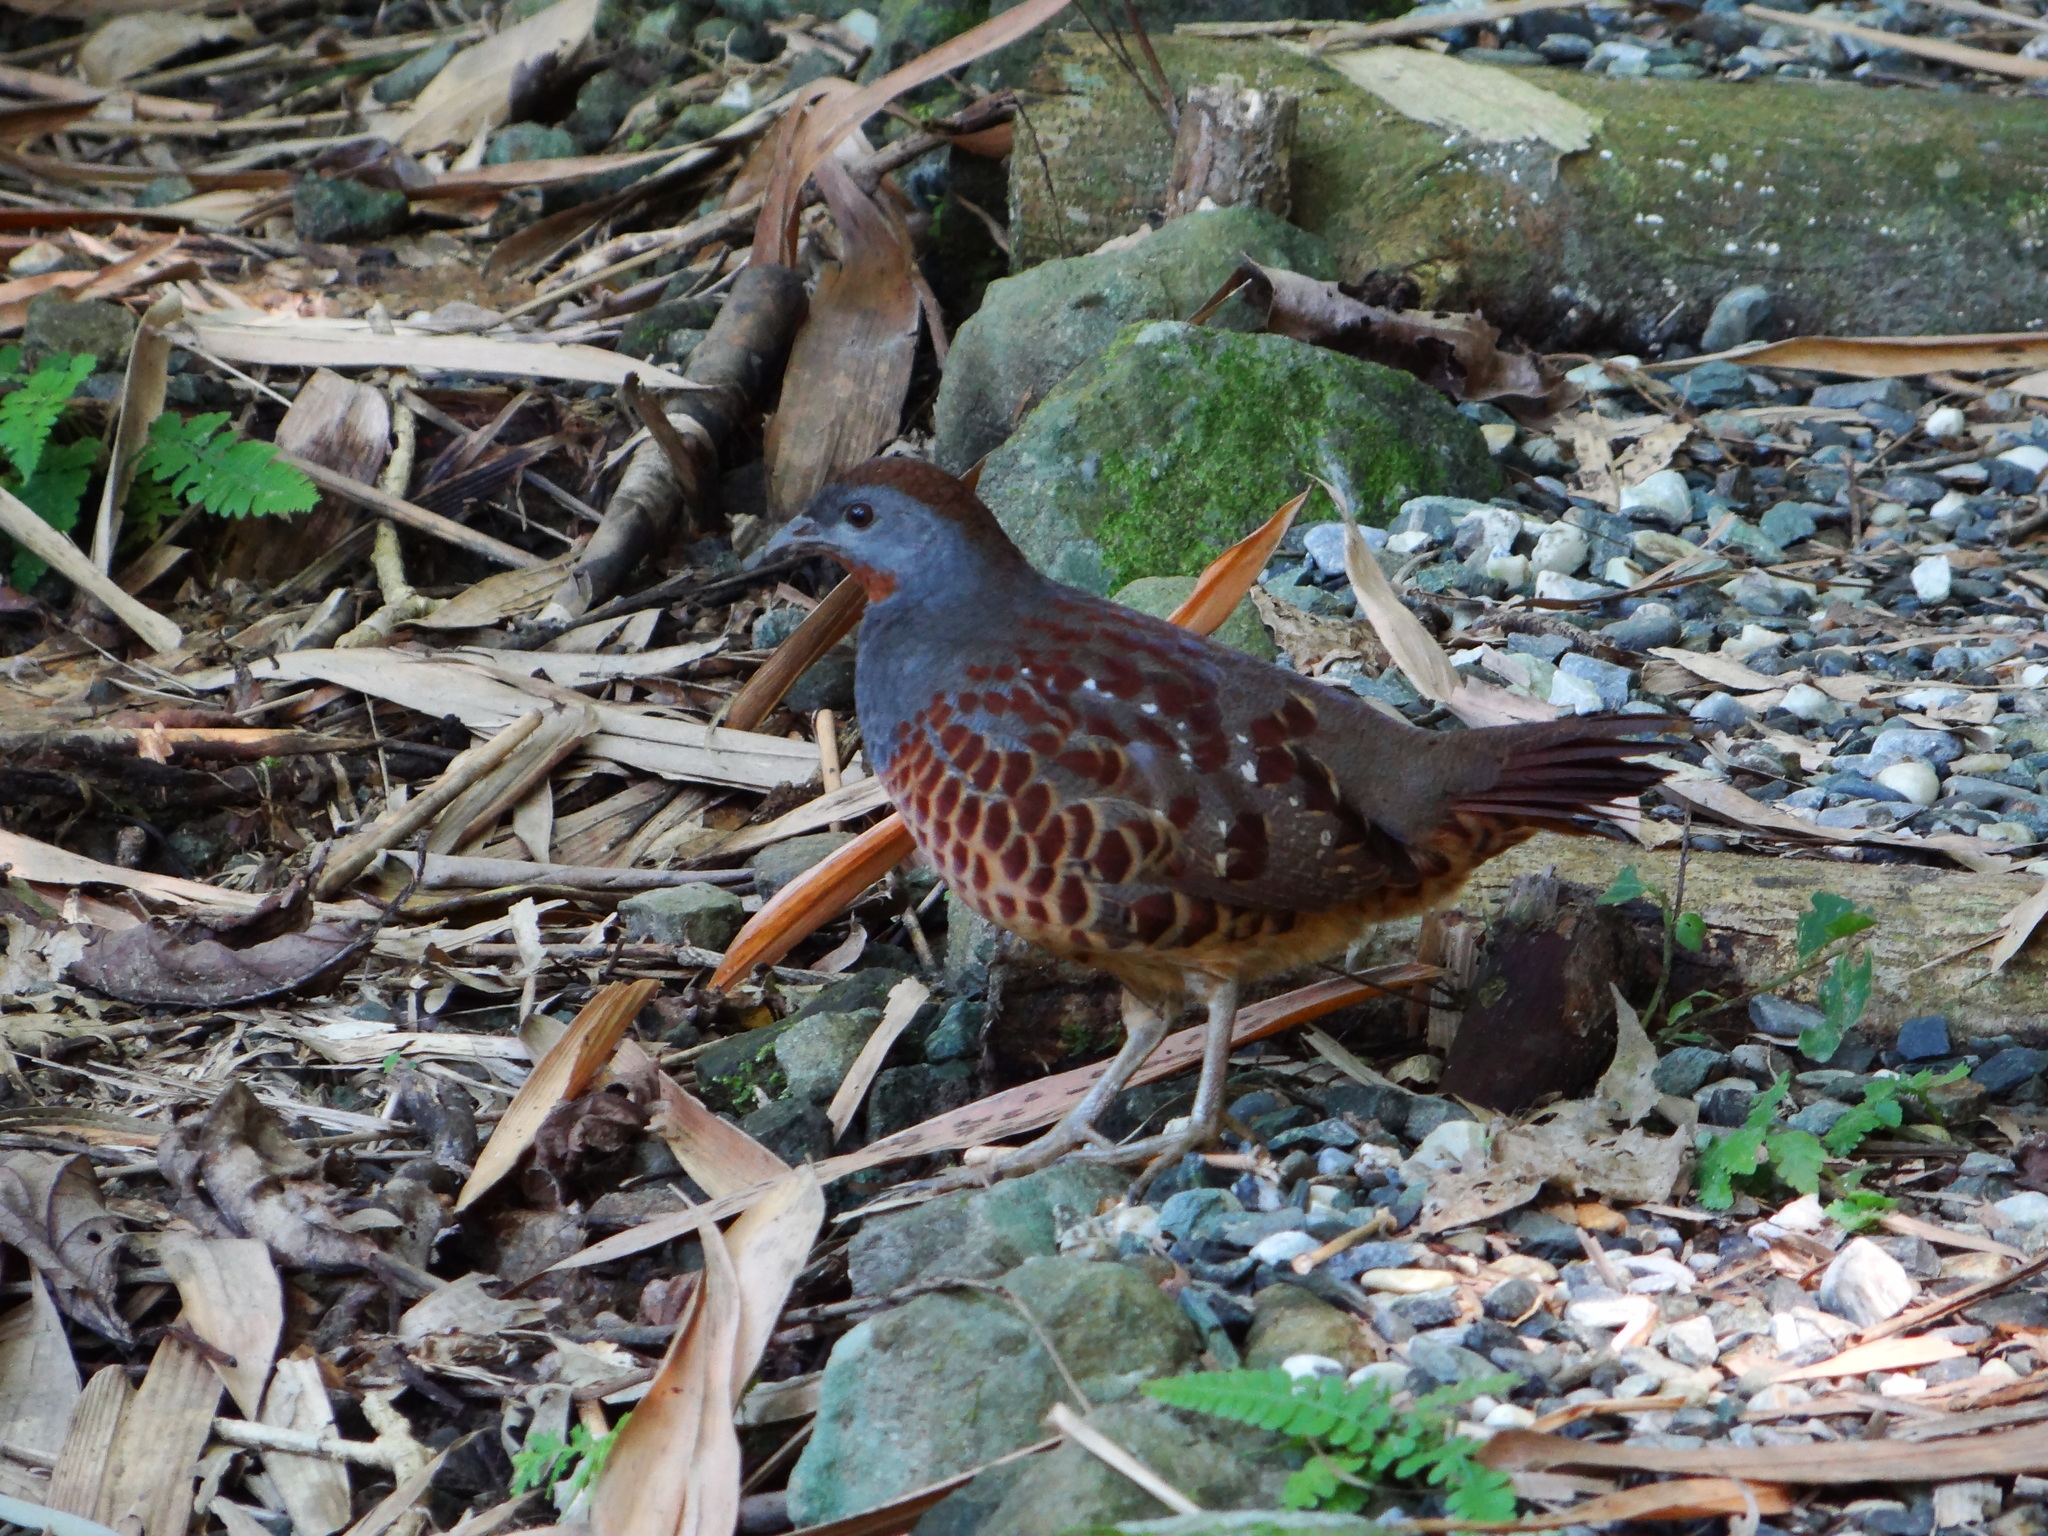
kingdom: Animalia
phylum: Chordata
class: Aves
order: Galliformes
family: Phasianidae
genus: Bambusicola
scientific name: Bambusicola sonorivox
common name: Taiwan bamboo-partridge
